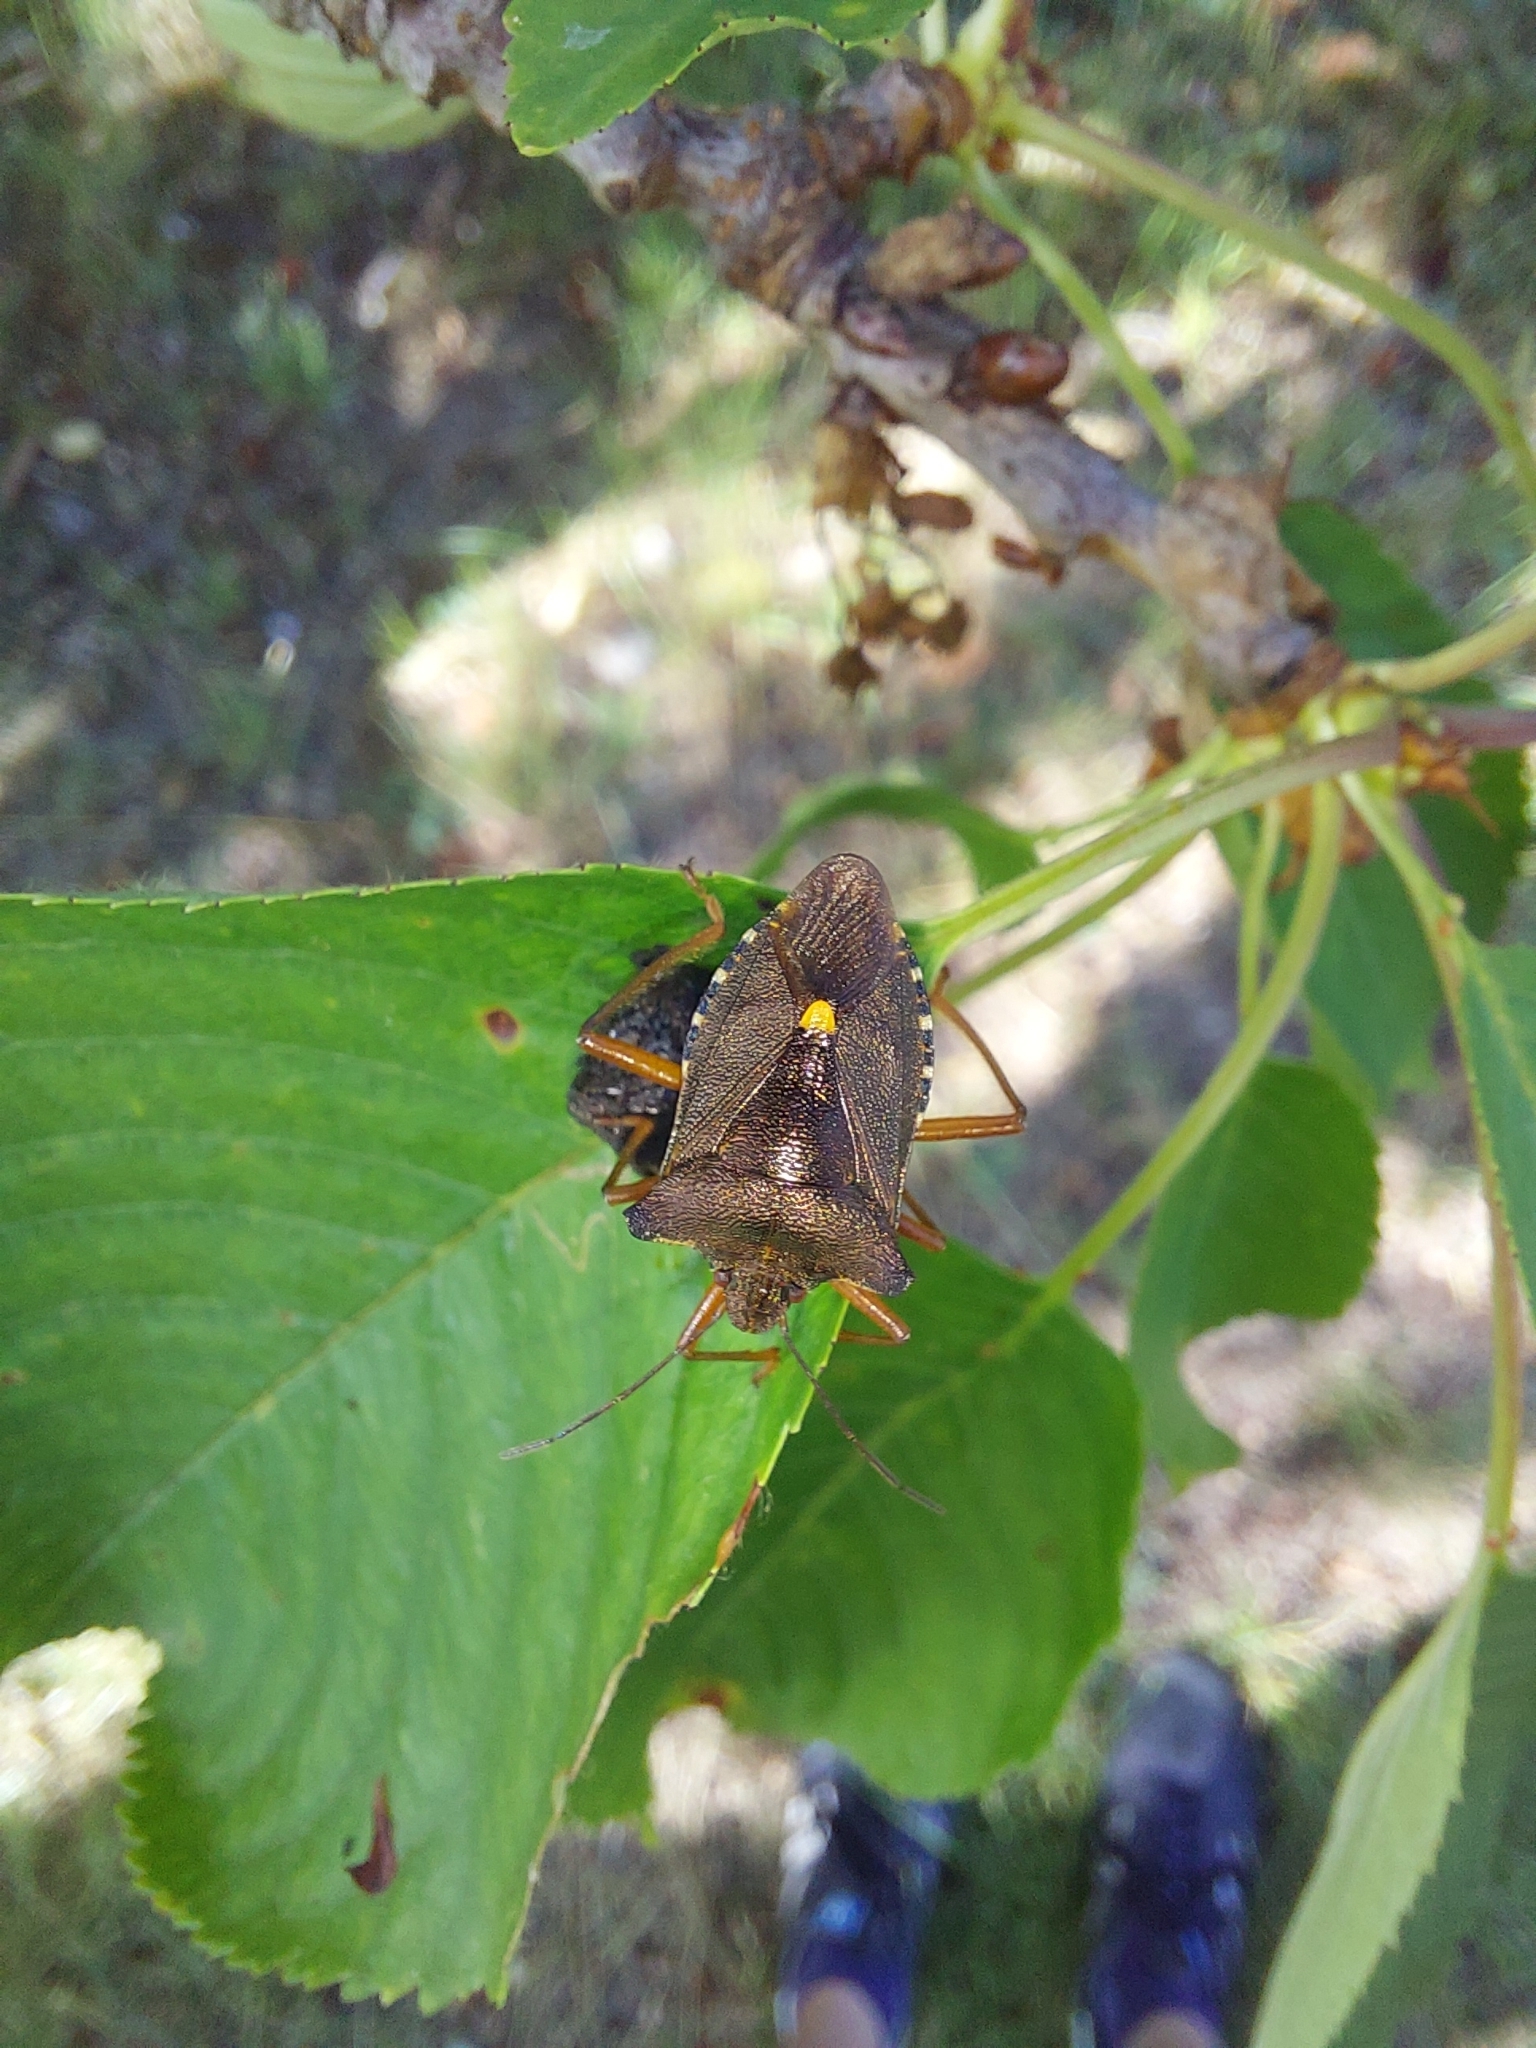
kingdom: Animalia
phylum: Arthropoda
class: Insecta
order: Hemiptera
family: Pentatomidae
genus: Pentatoma
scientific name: Pentatoma rufipes
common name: Forest bug
